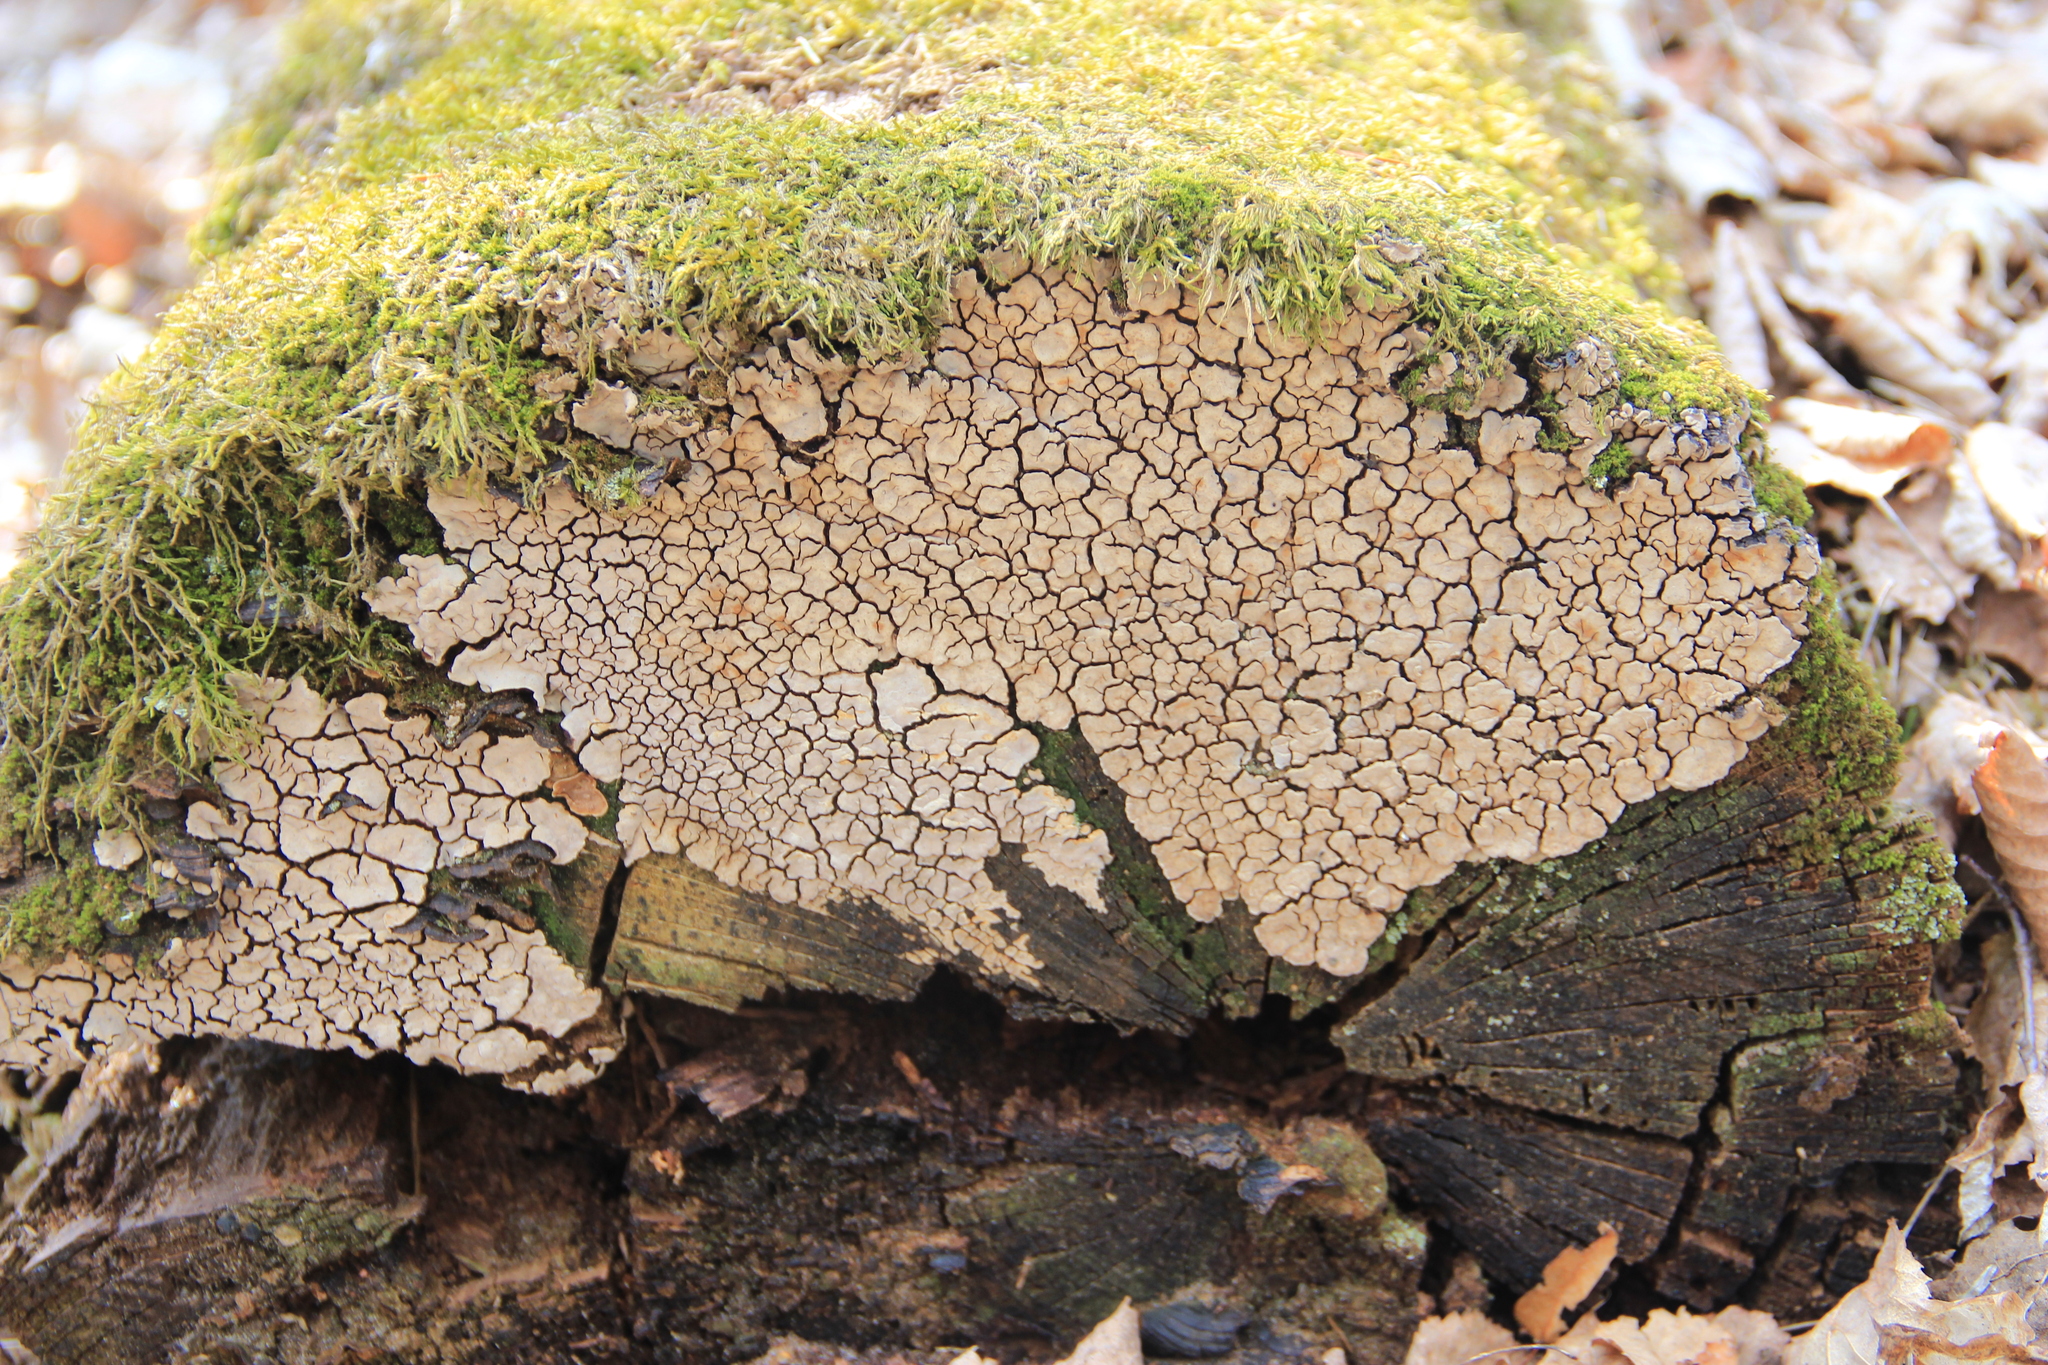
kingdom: Fungi
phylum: Basidiomycota
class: Agaricomycetes
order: Russulales
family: Stereaceae
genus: Xylobolus
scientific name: Xylobolus frustulatus
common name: Ceramic parchment
